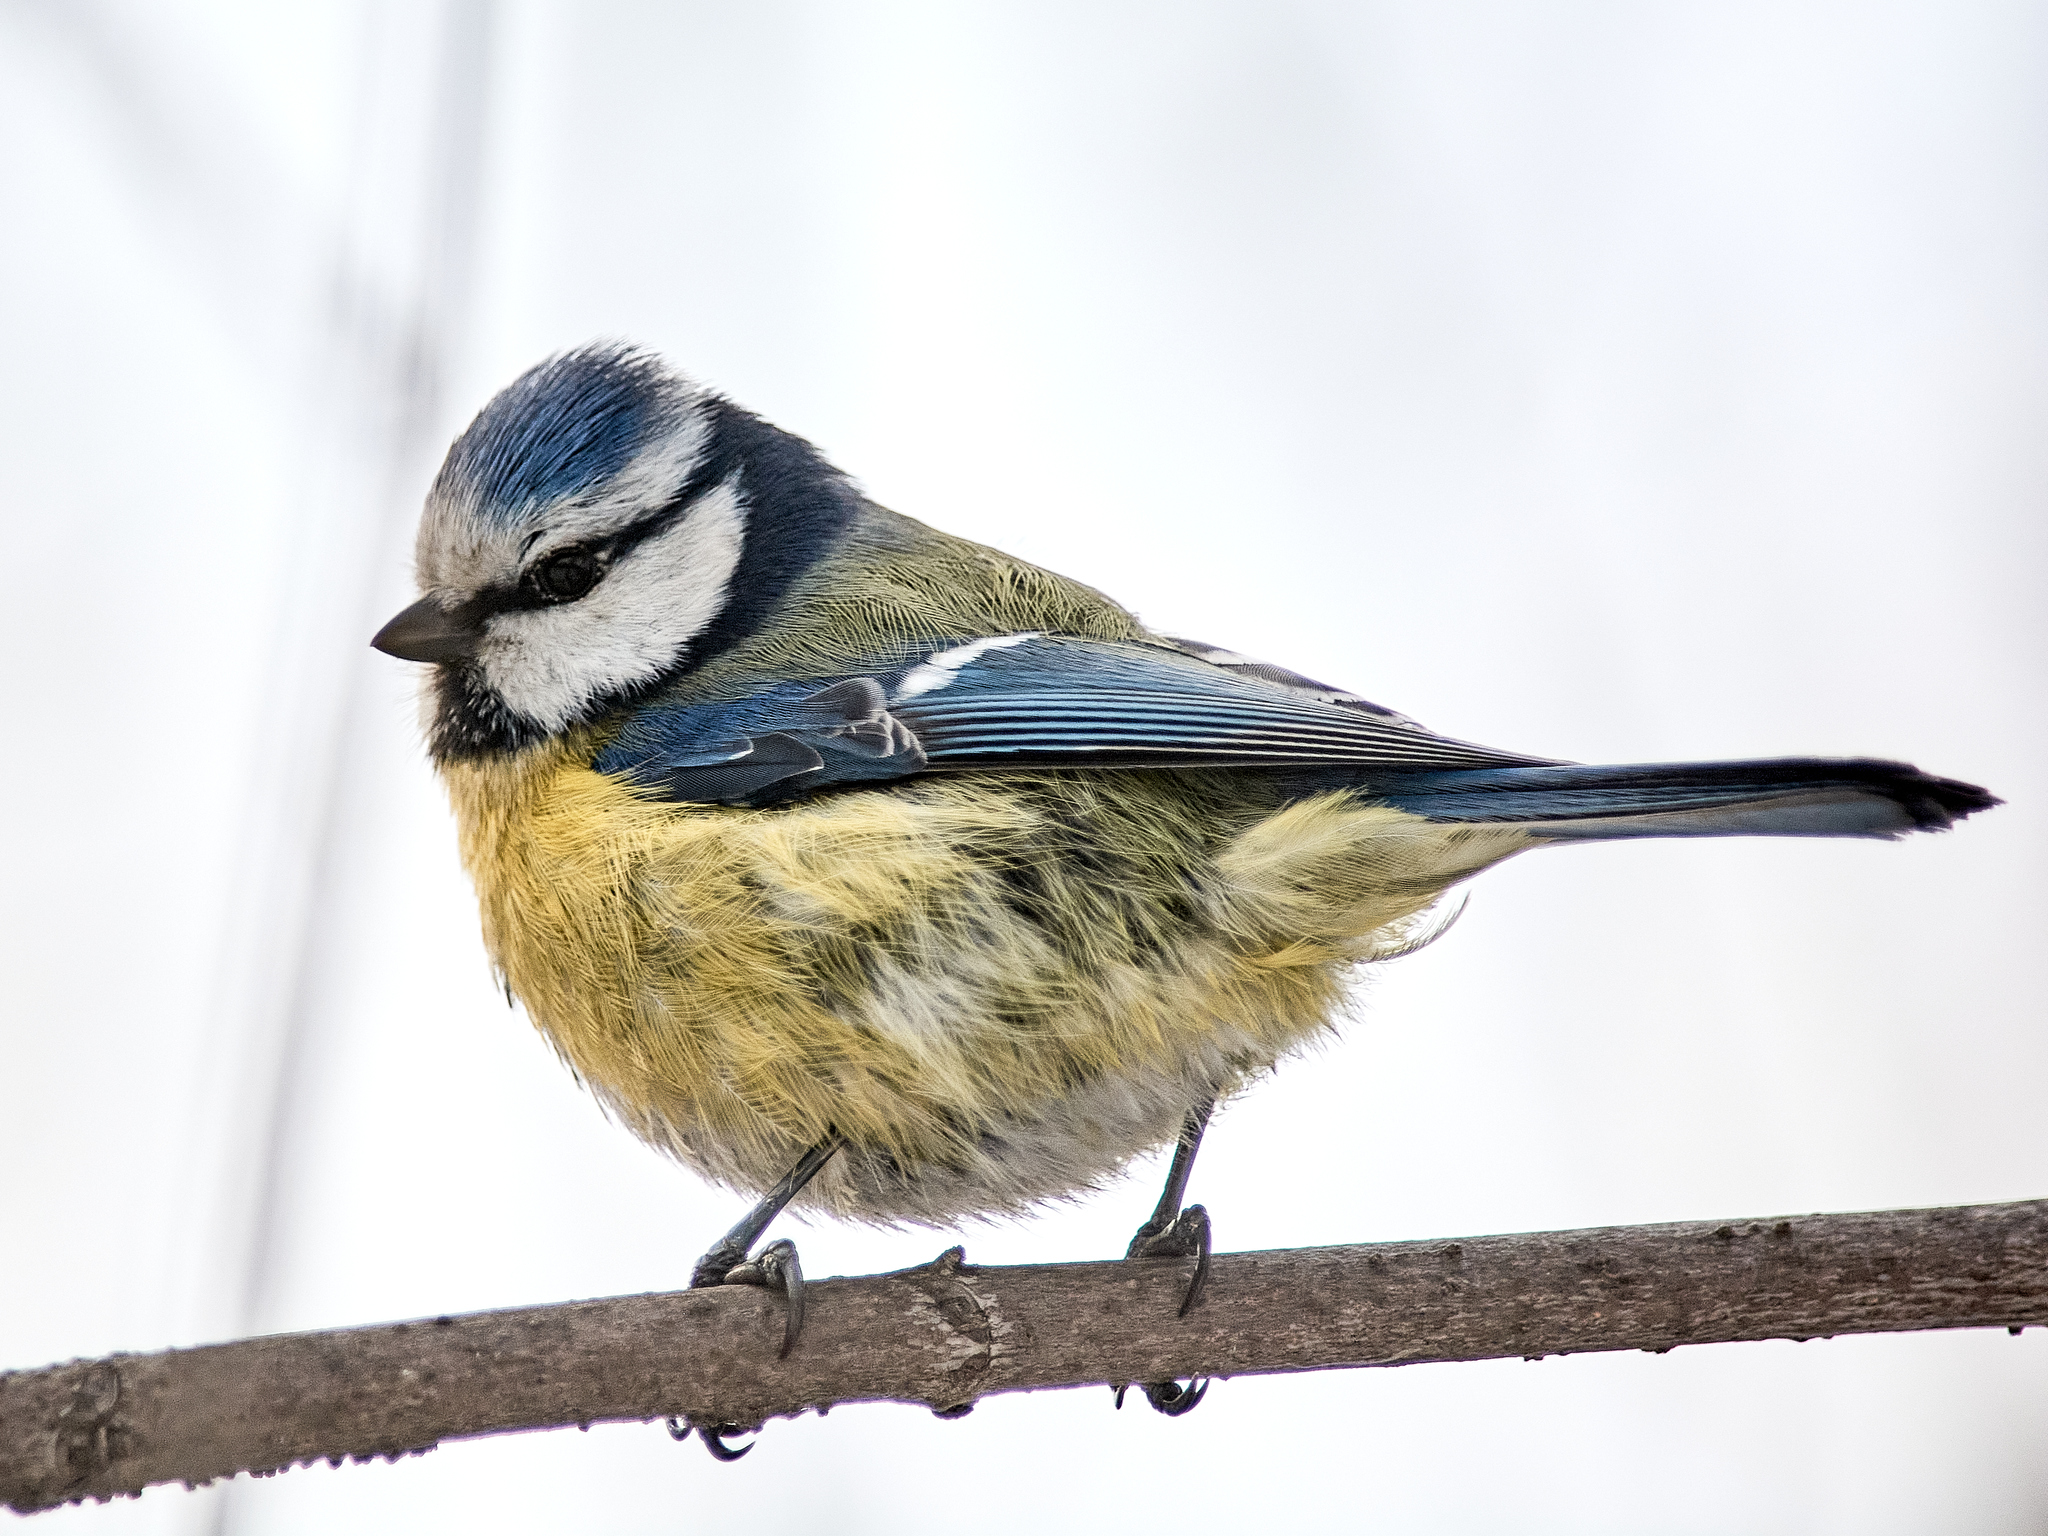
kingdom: Animalia
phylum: Chordata
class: Aves
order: Passeriformes
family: Paridae
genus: Cyanistes
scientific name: Cyanistes caeruleus
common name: Eurasian blue tit
